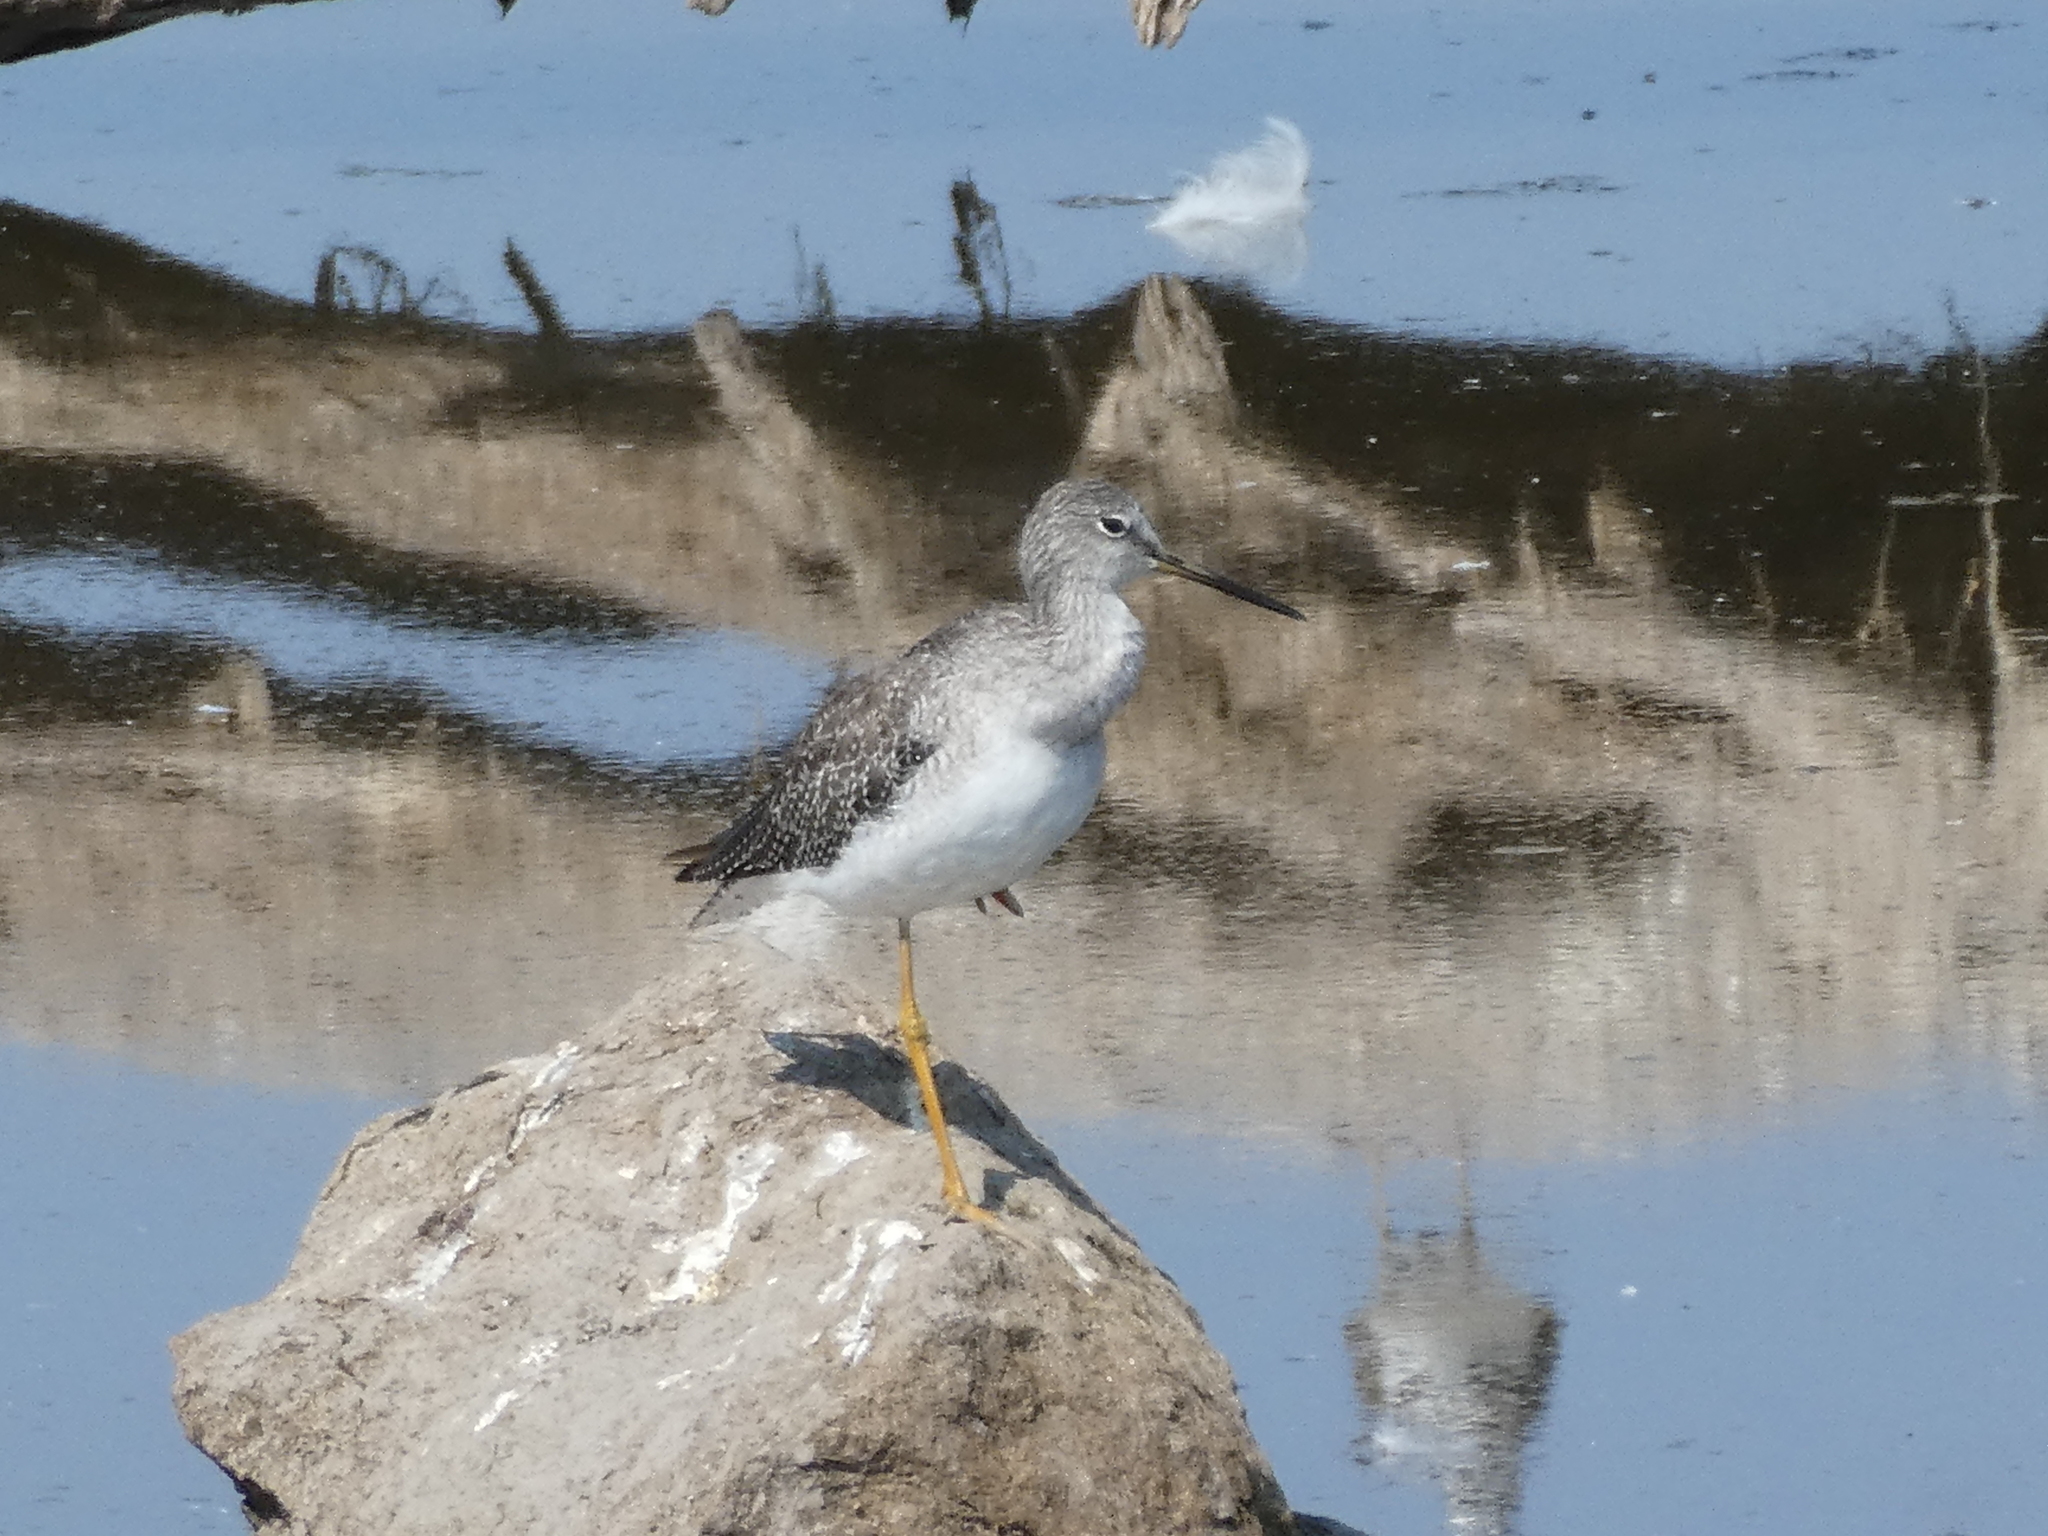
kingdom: Animalia
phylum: Chordata
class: Aves
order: Charadriiformes
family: Scolopacidae
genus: Tringa
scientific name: Tringa melanoleuca
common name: Greater yellowlegs
